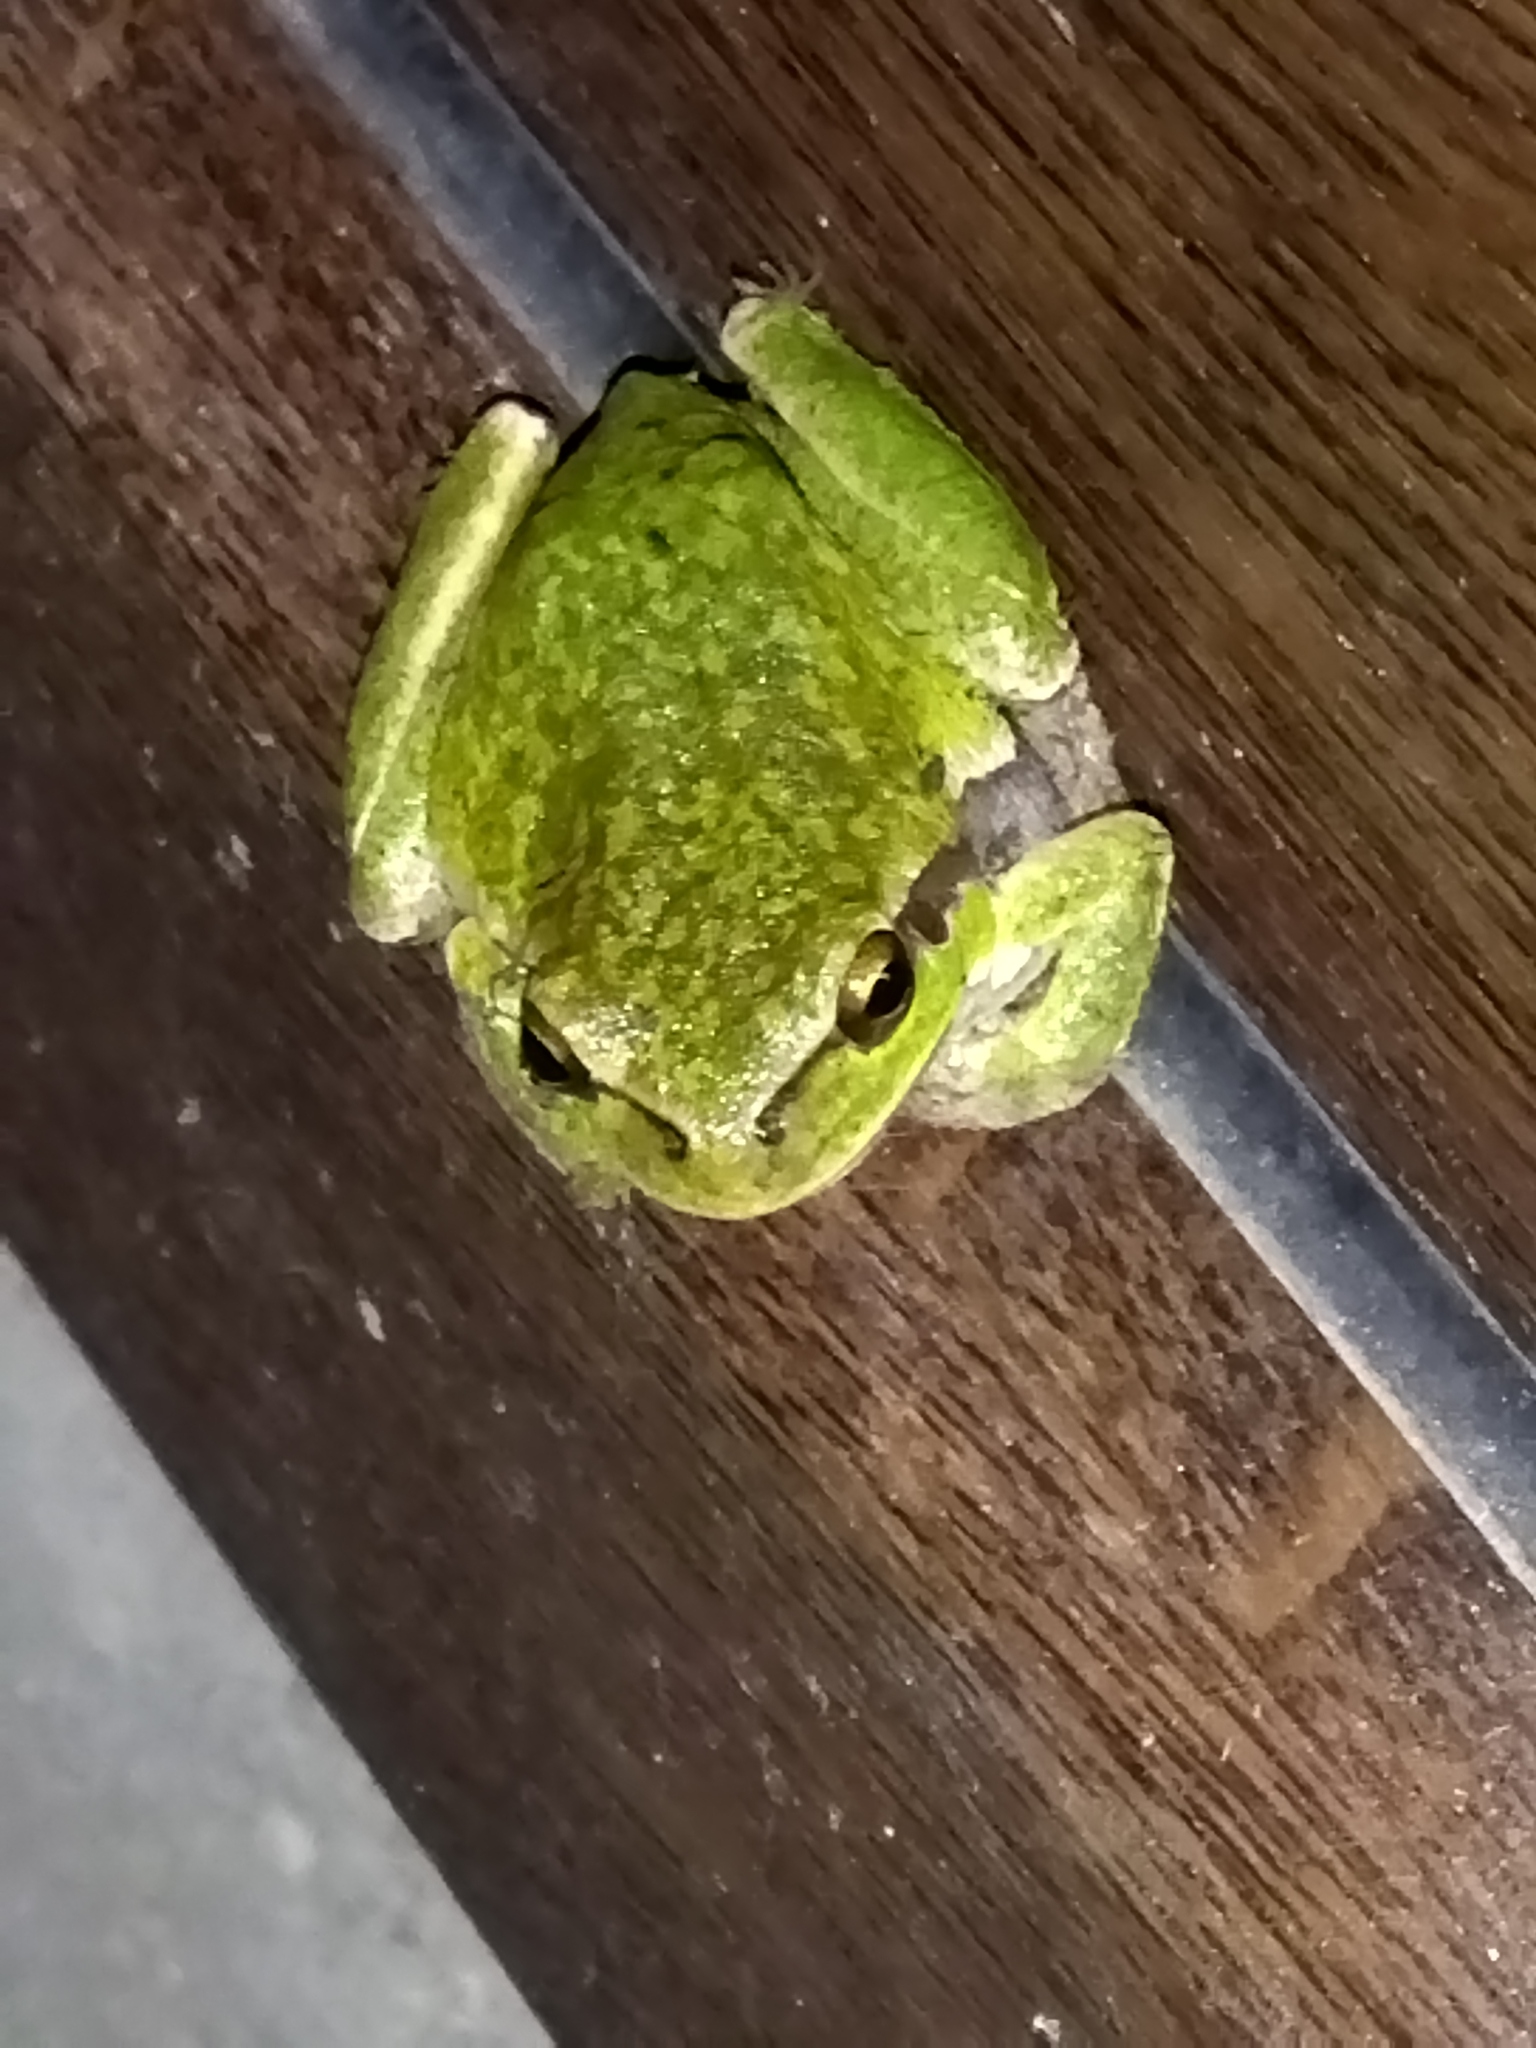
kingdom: Animalia
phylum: Chordata
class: Amphibia
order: Anura
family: Hylidae
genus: Hyla
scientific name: Hyla orientalis
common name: Caucasian treefrog
